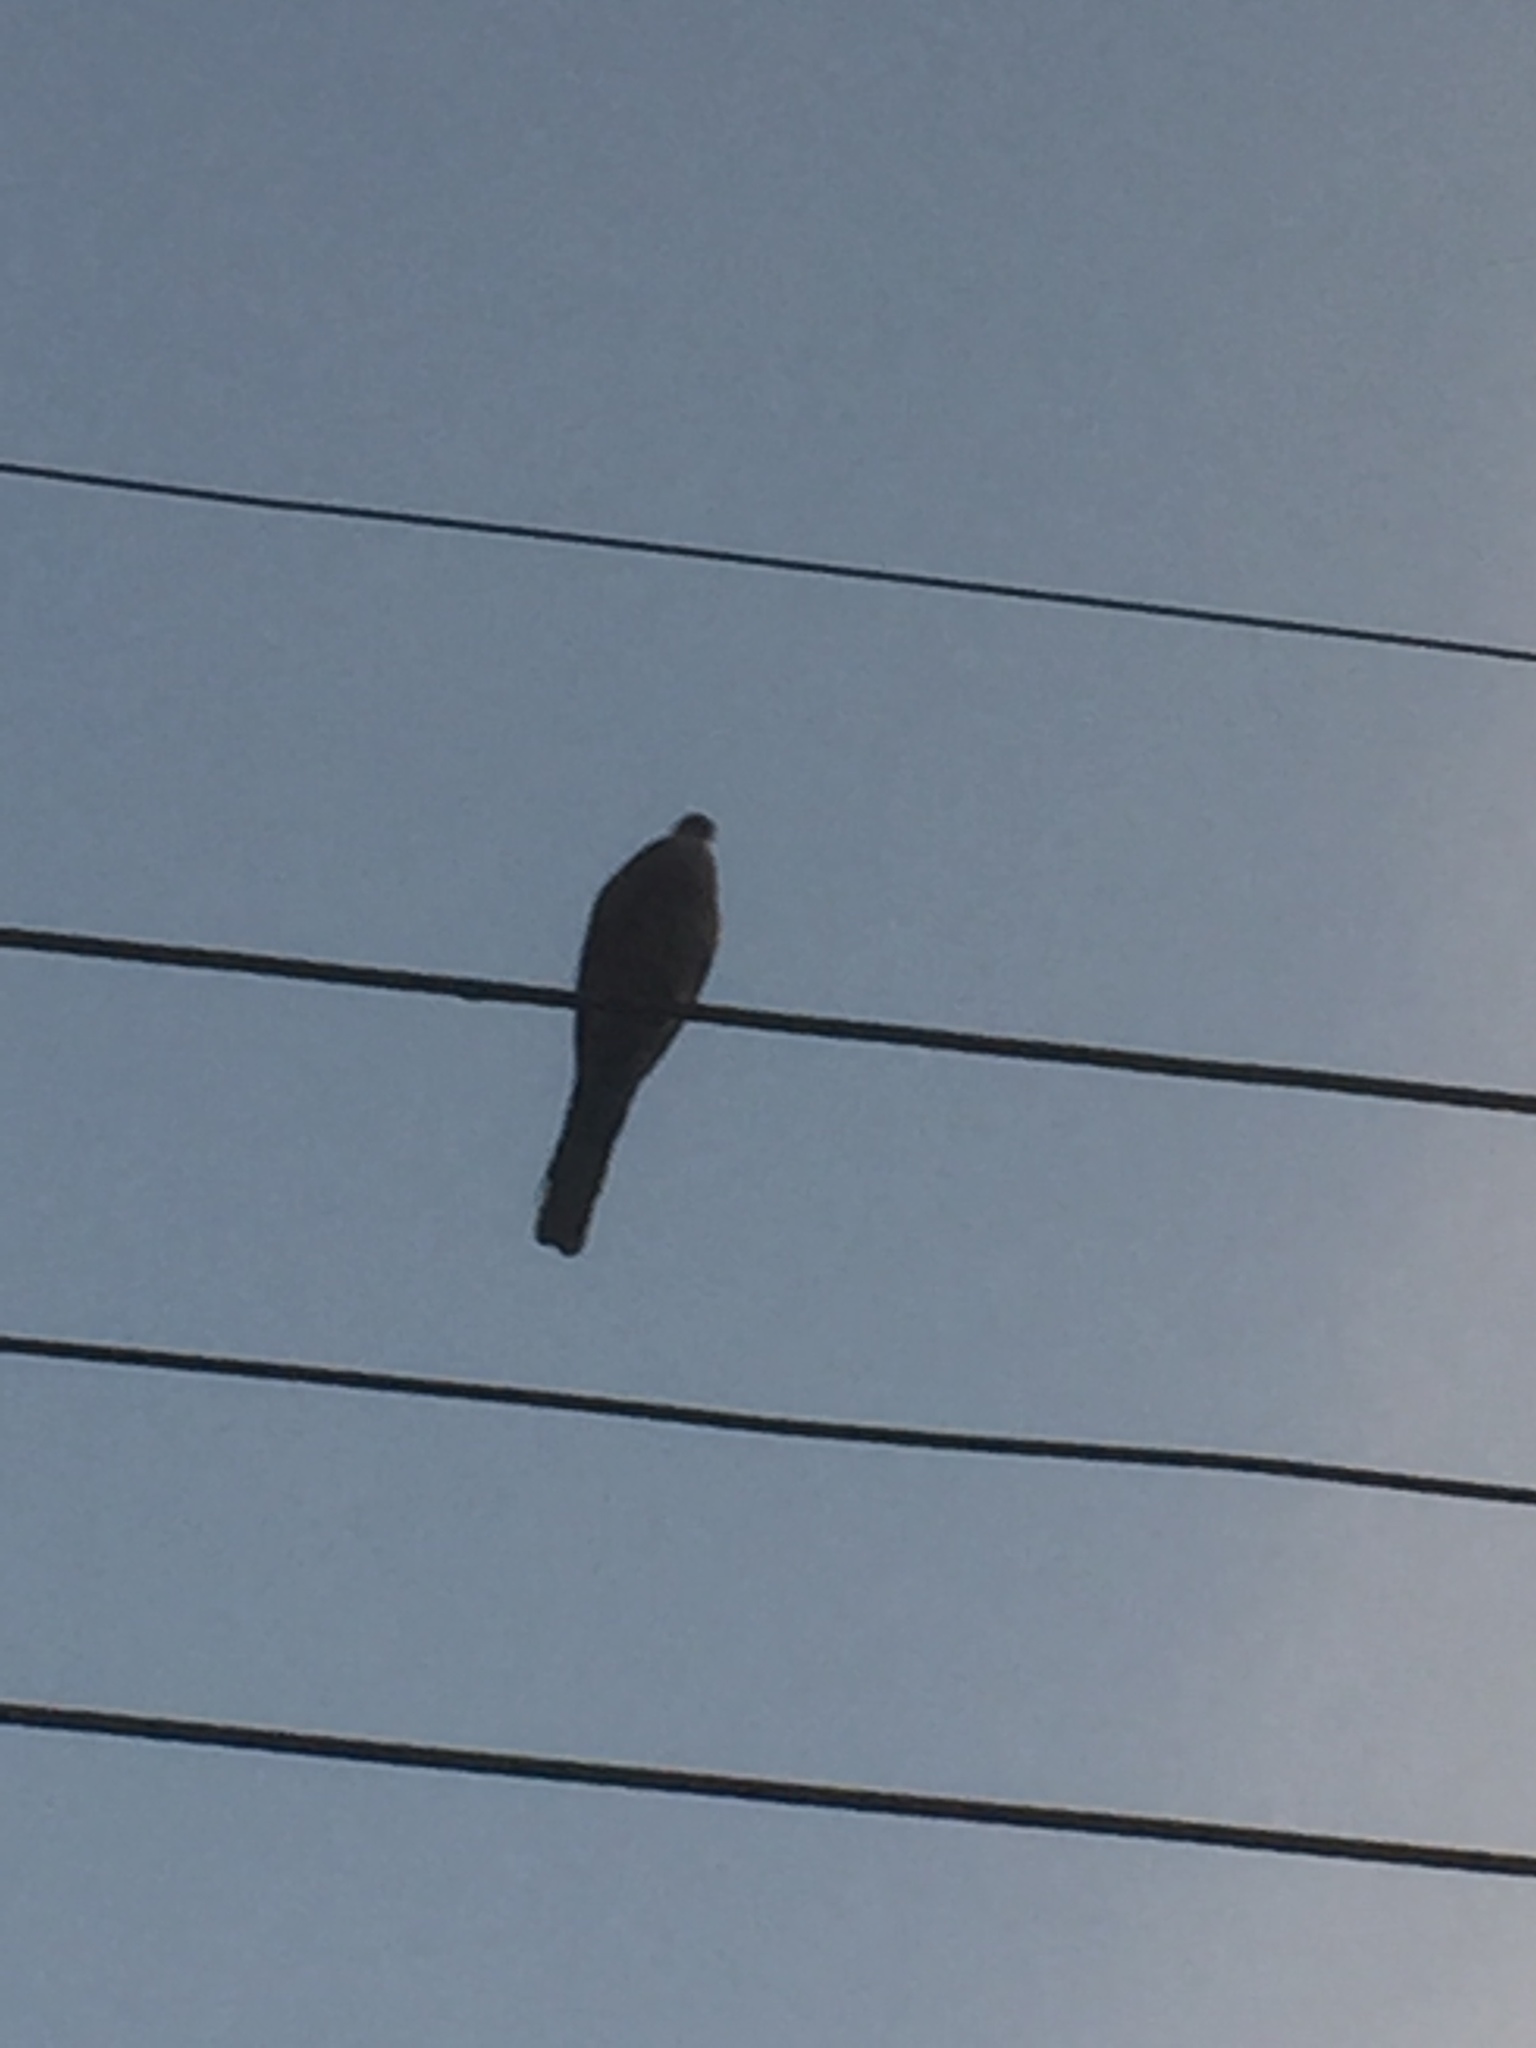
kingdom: Animalia
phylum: Chordata
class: Aves
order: Columbiformes
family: Columbidae
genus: Spilopelia
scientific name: Spilopelia chinensis
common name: Spotted dove
